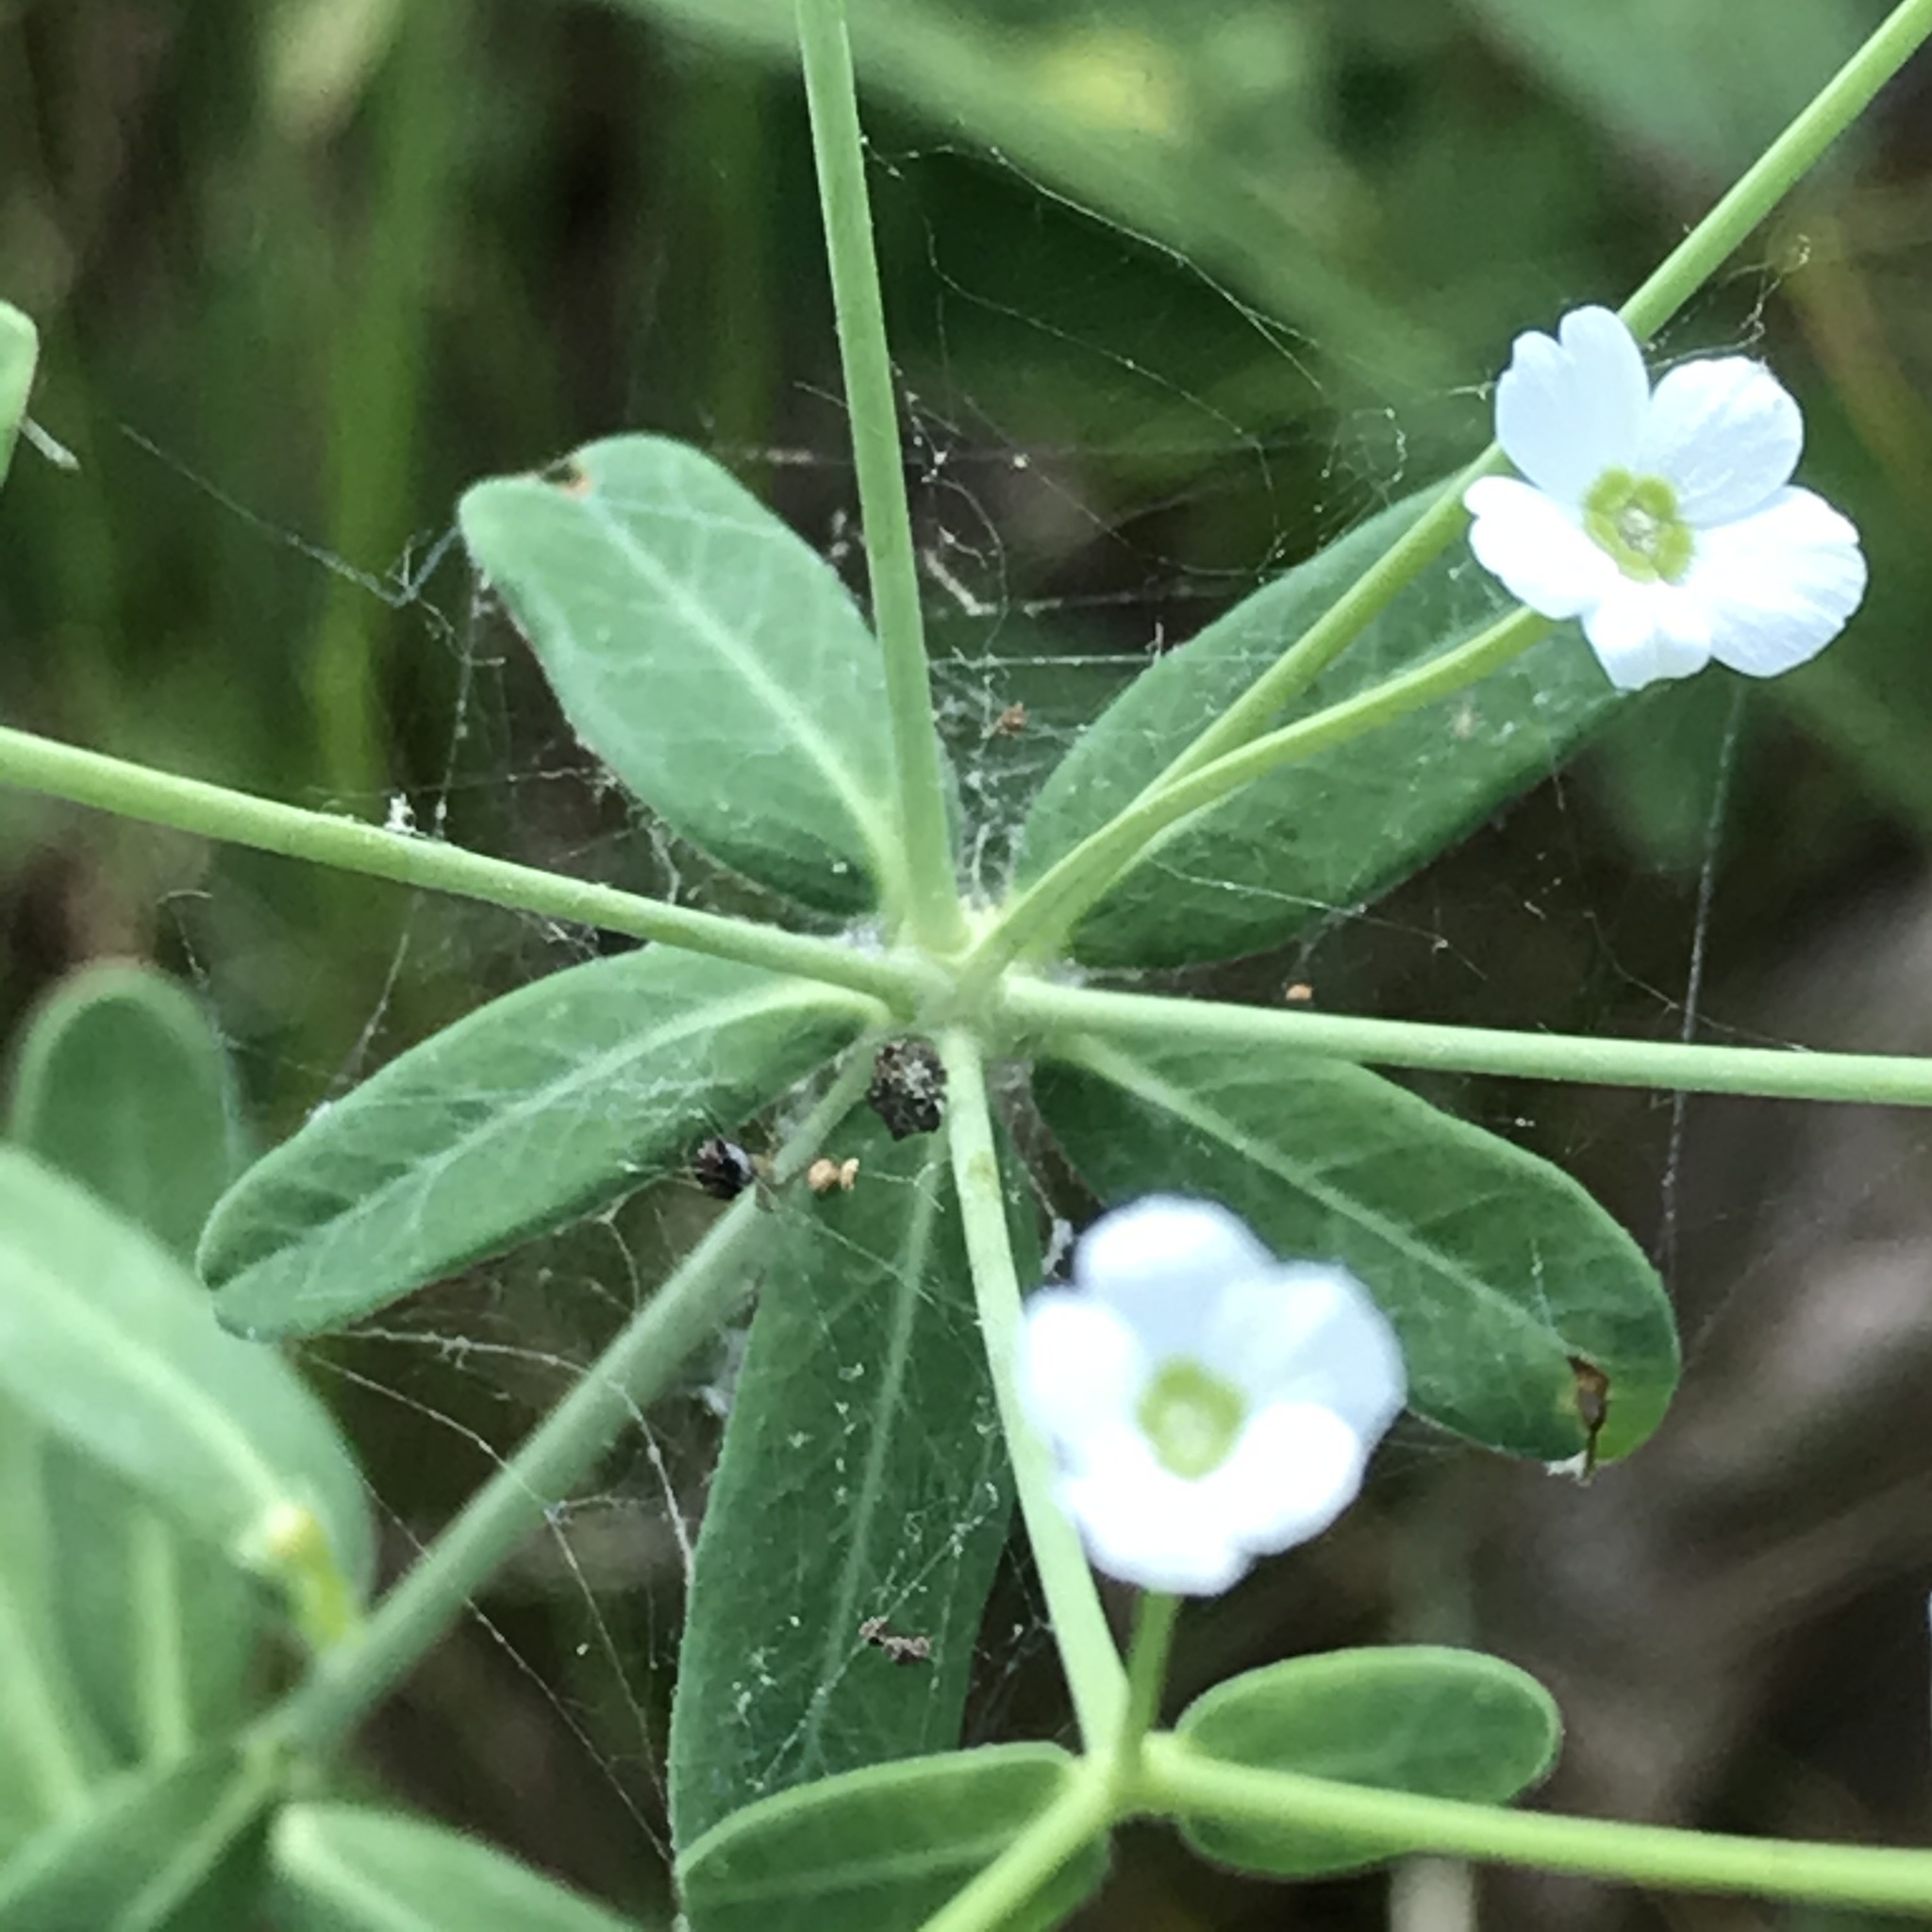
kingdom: Plantae
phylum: Tracheophyta
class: Magnoliopsida
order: Malpighiales
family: Euphorbiaceae
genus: Euphorbia
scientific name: Euphorbia corollata
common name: Flowering spurge
